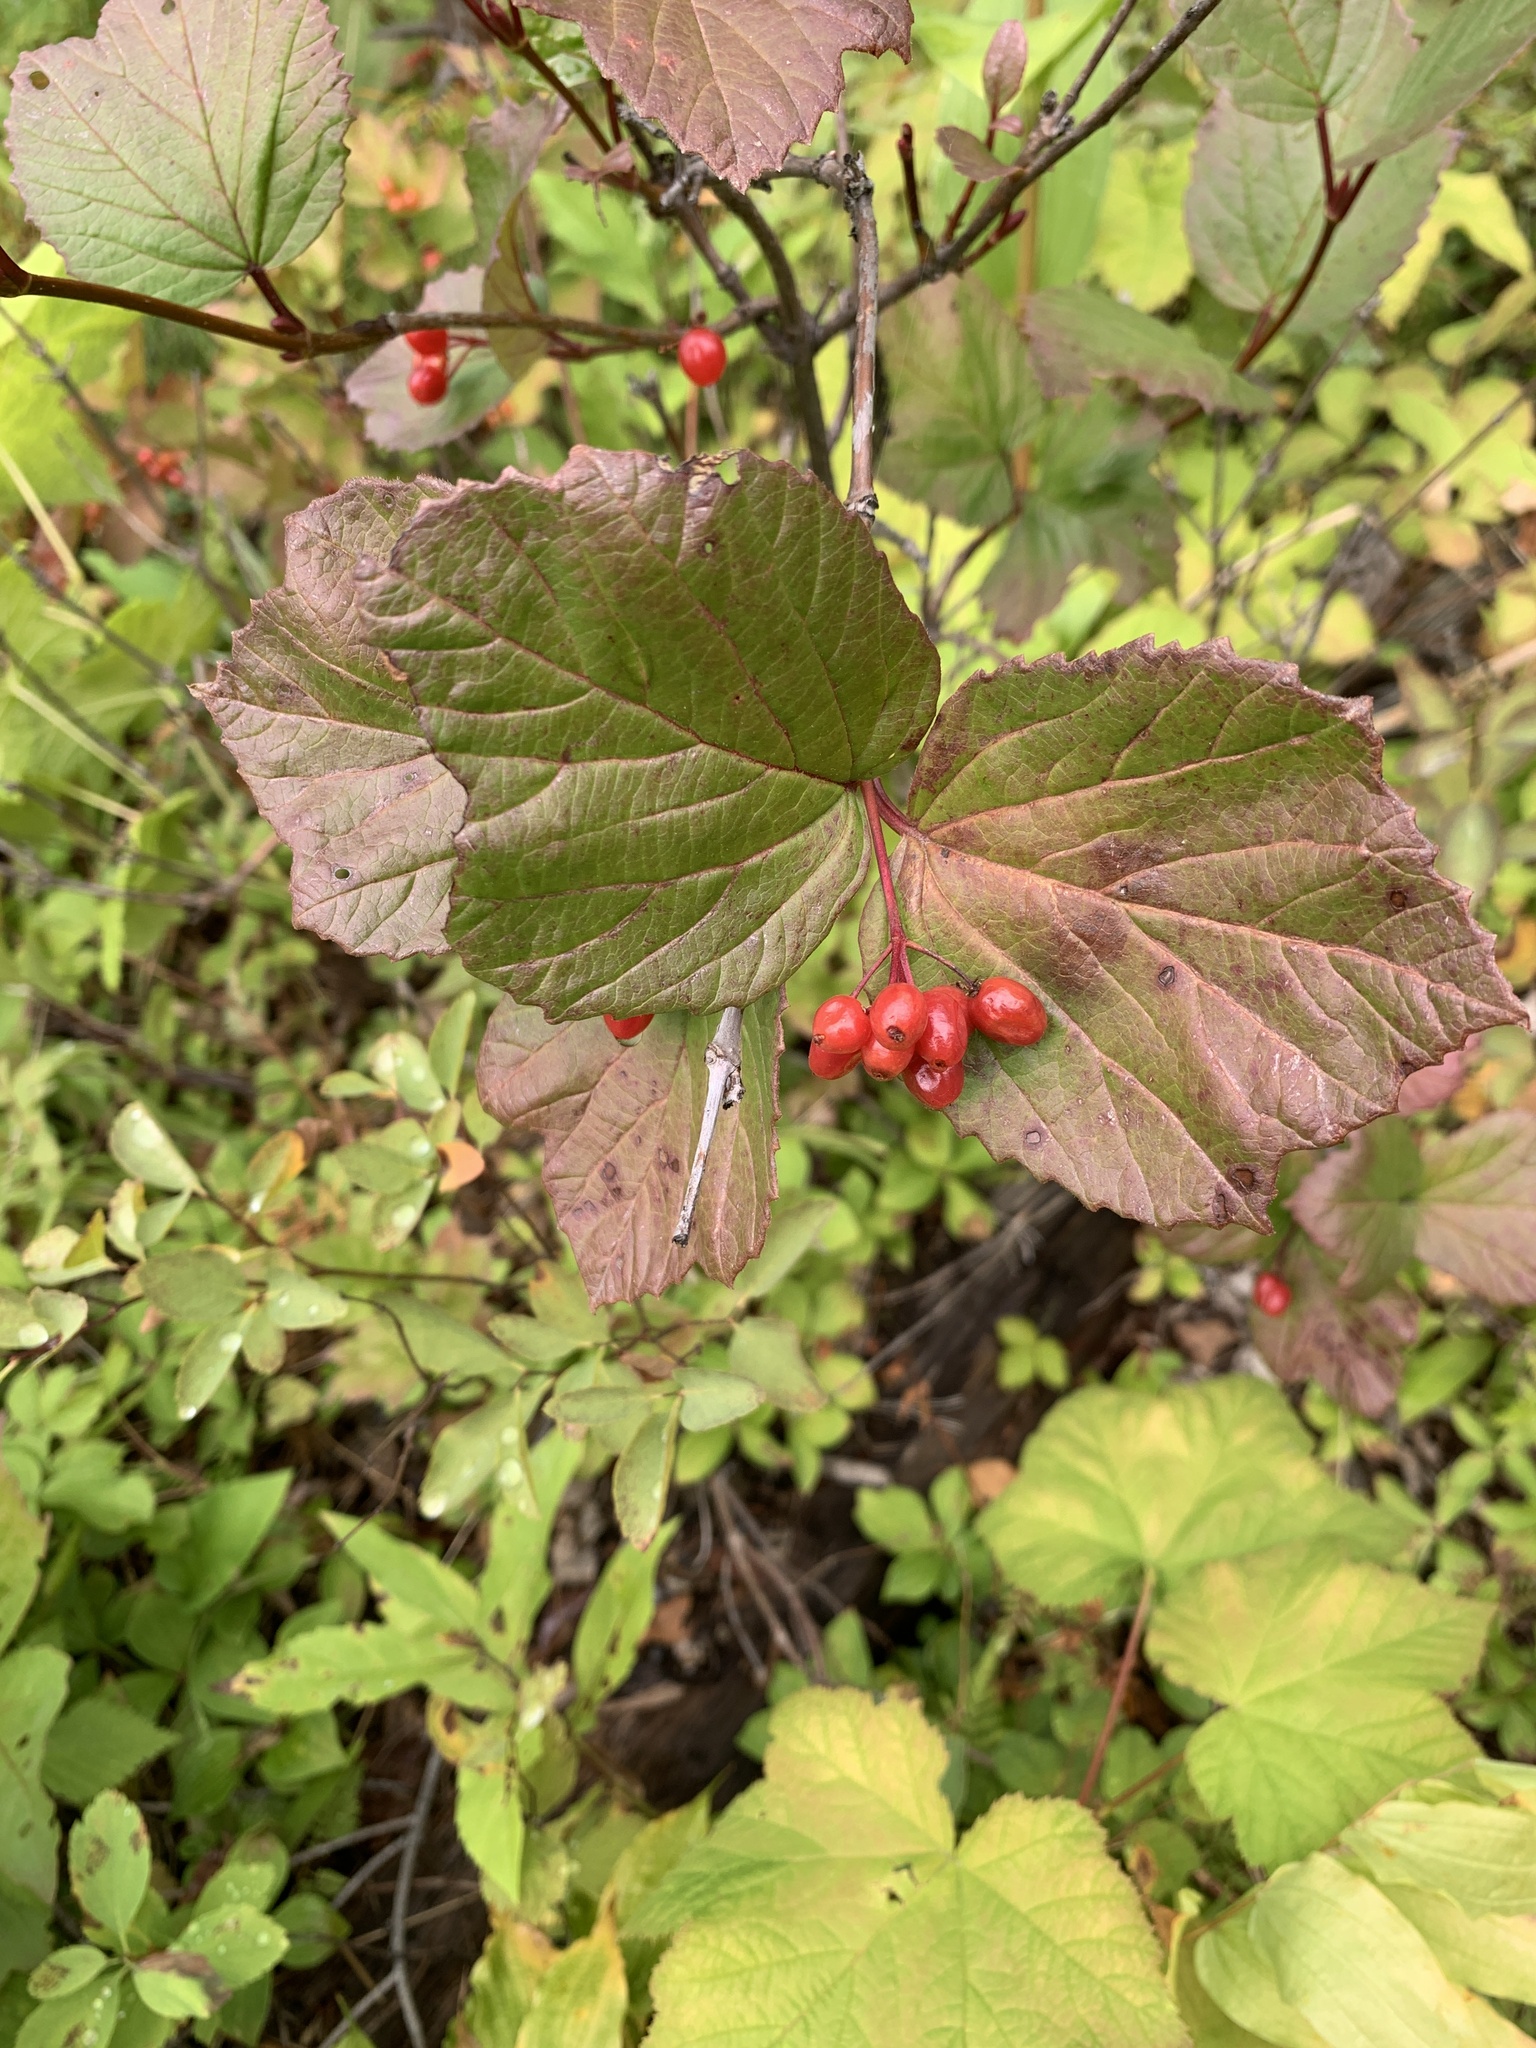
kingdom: Plantae
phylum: Tracheophyta
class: Magnoliopsida
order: Dipsacales
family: Viburnaceae
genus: Viburnum
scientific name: Viburnum edule
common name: Mooseberry
